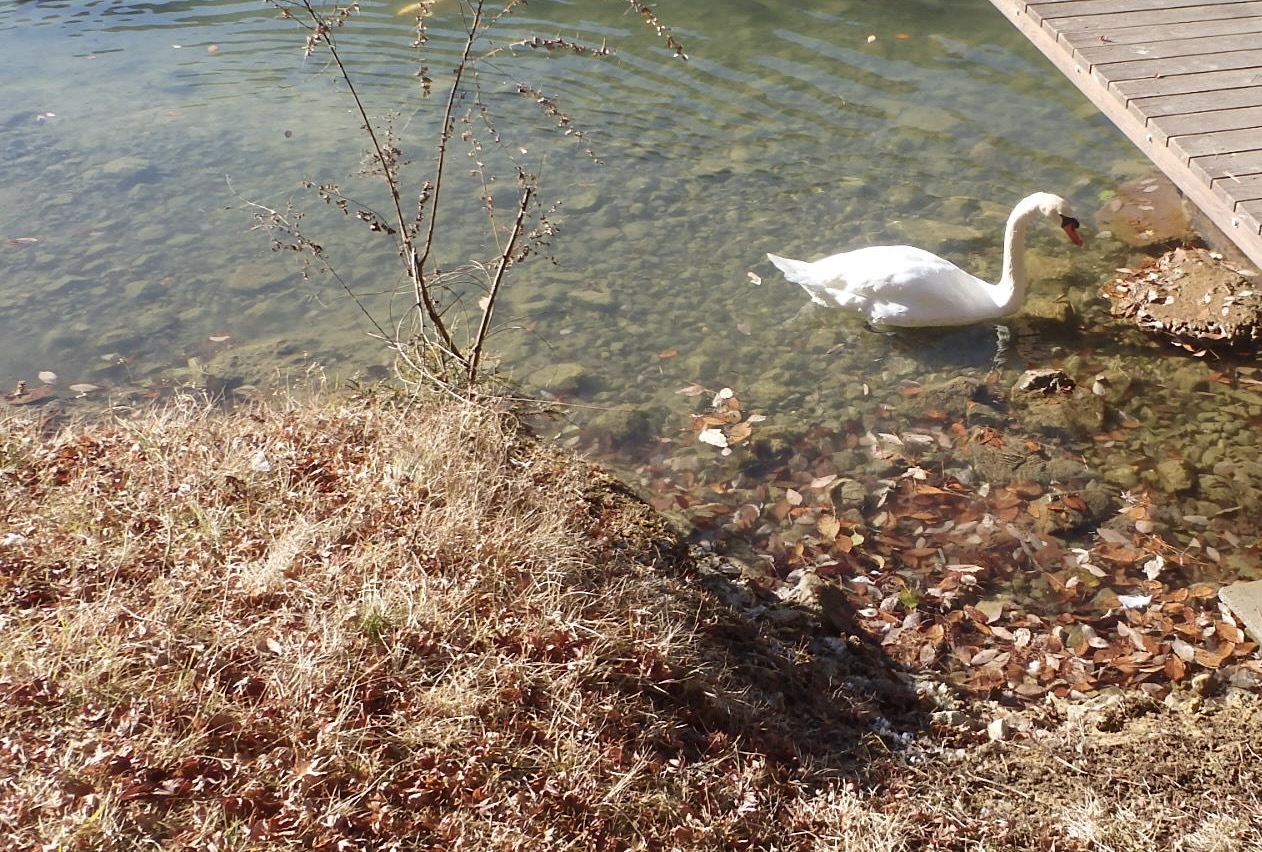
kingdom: Animalia
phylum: Chordata
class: Aves
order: Anseriformes
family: Anatidae
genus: Cygnus
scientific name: Cygnus olor
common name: Mute swan
